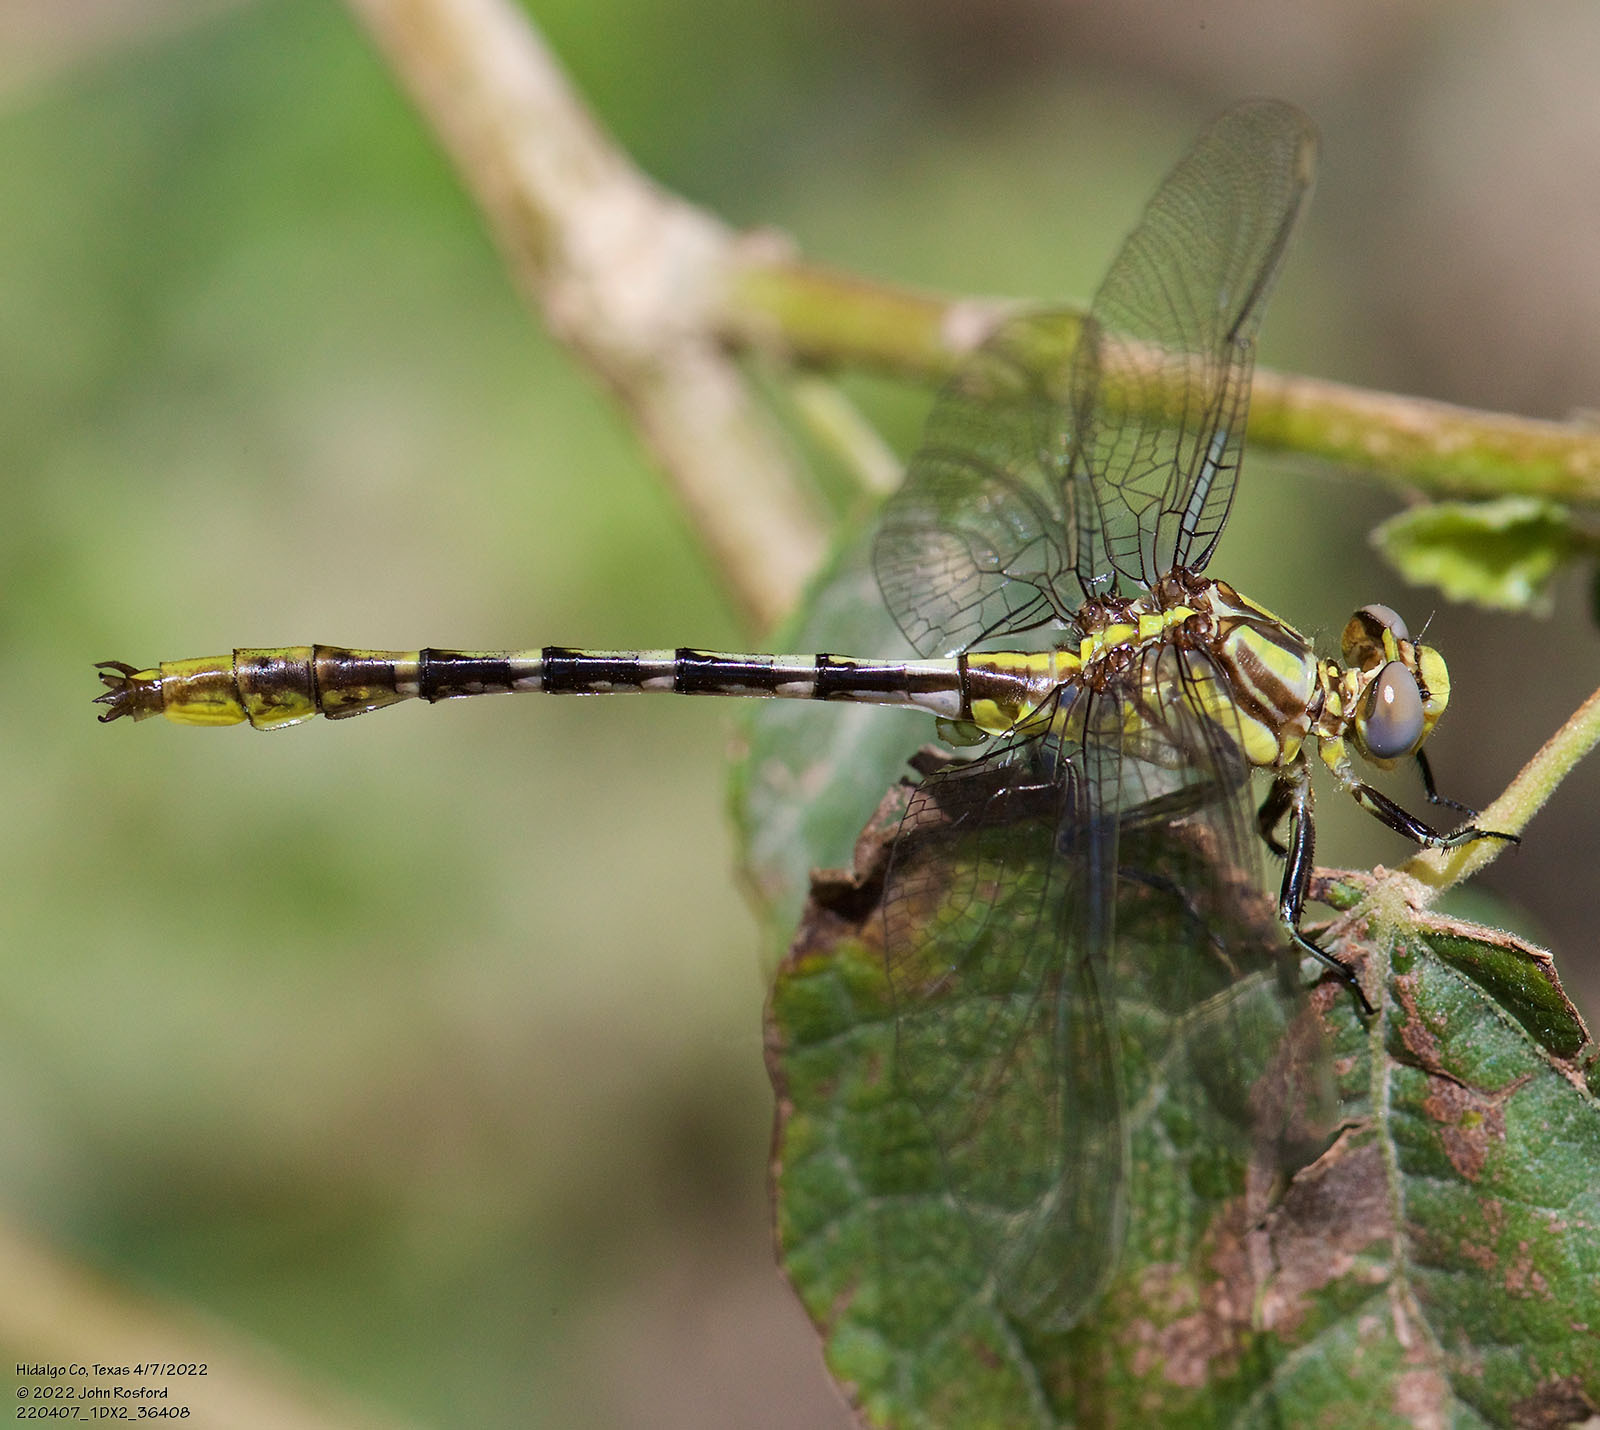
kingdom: Animalia
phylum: Arthropoda
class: Insecta
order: Odonata
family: Gomphidae
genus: Phanogomphus
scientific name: Phanogomphus militaris
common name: Sulphur-tipped clubtail
